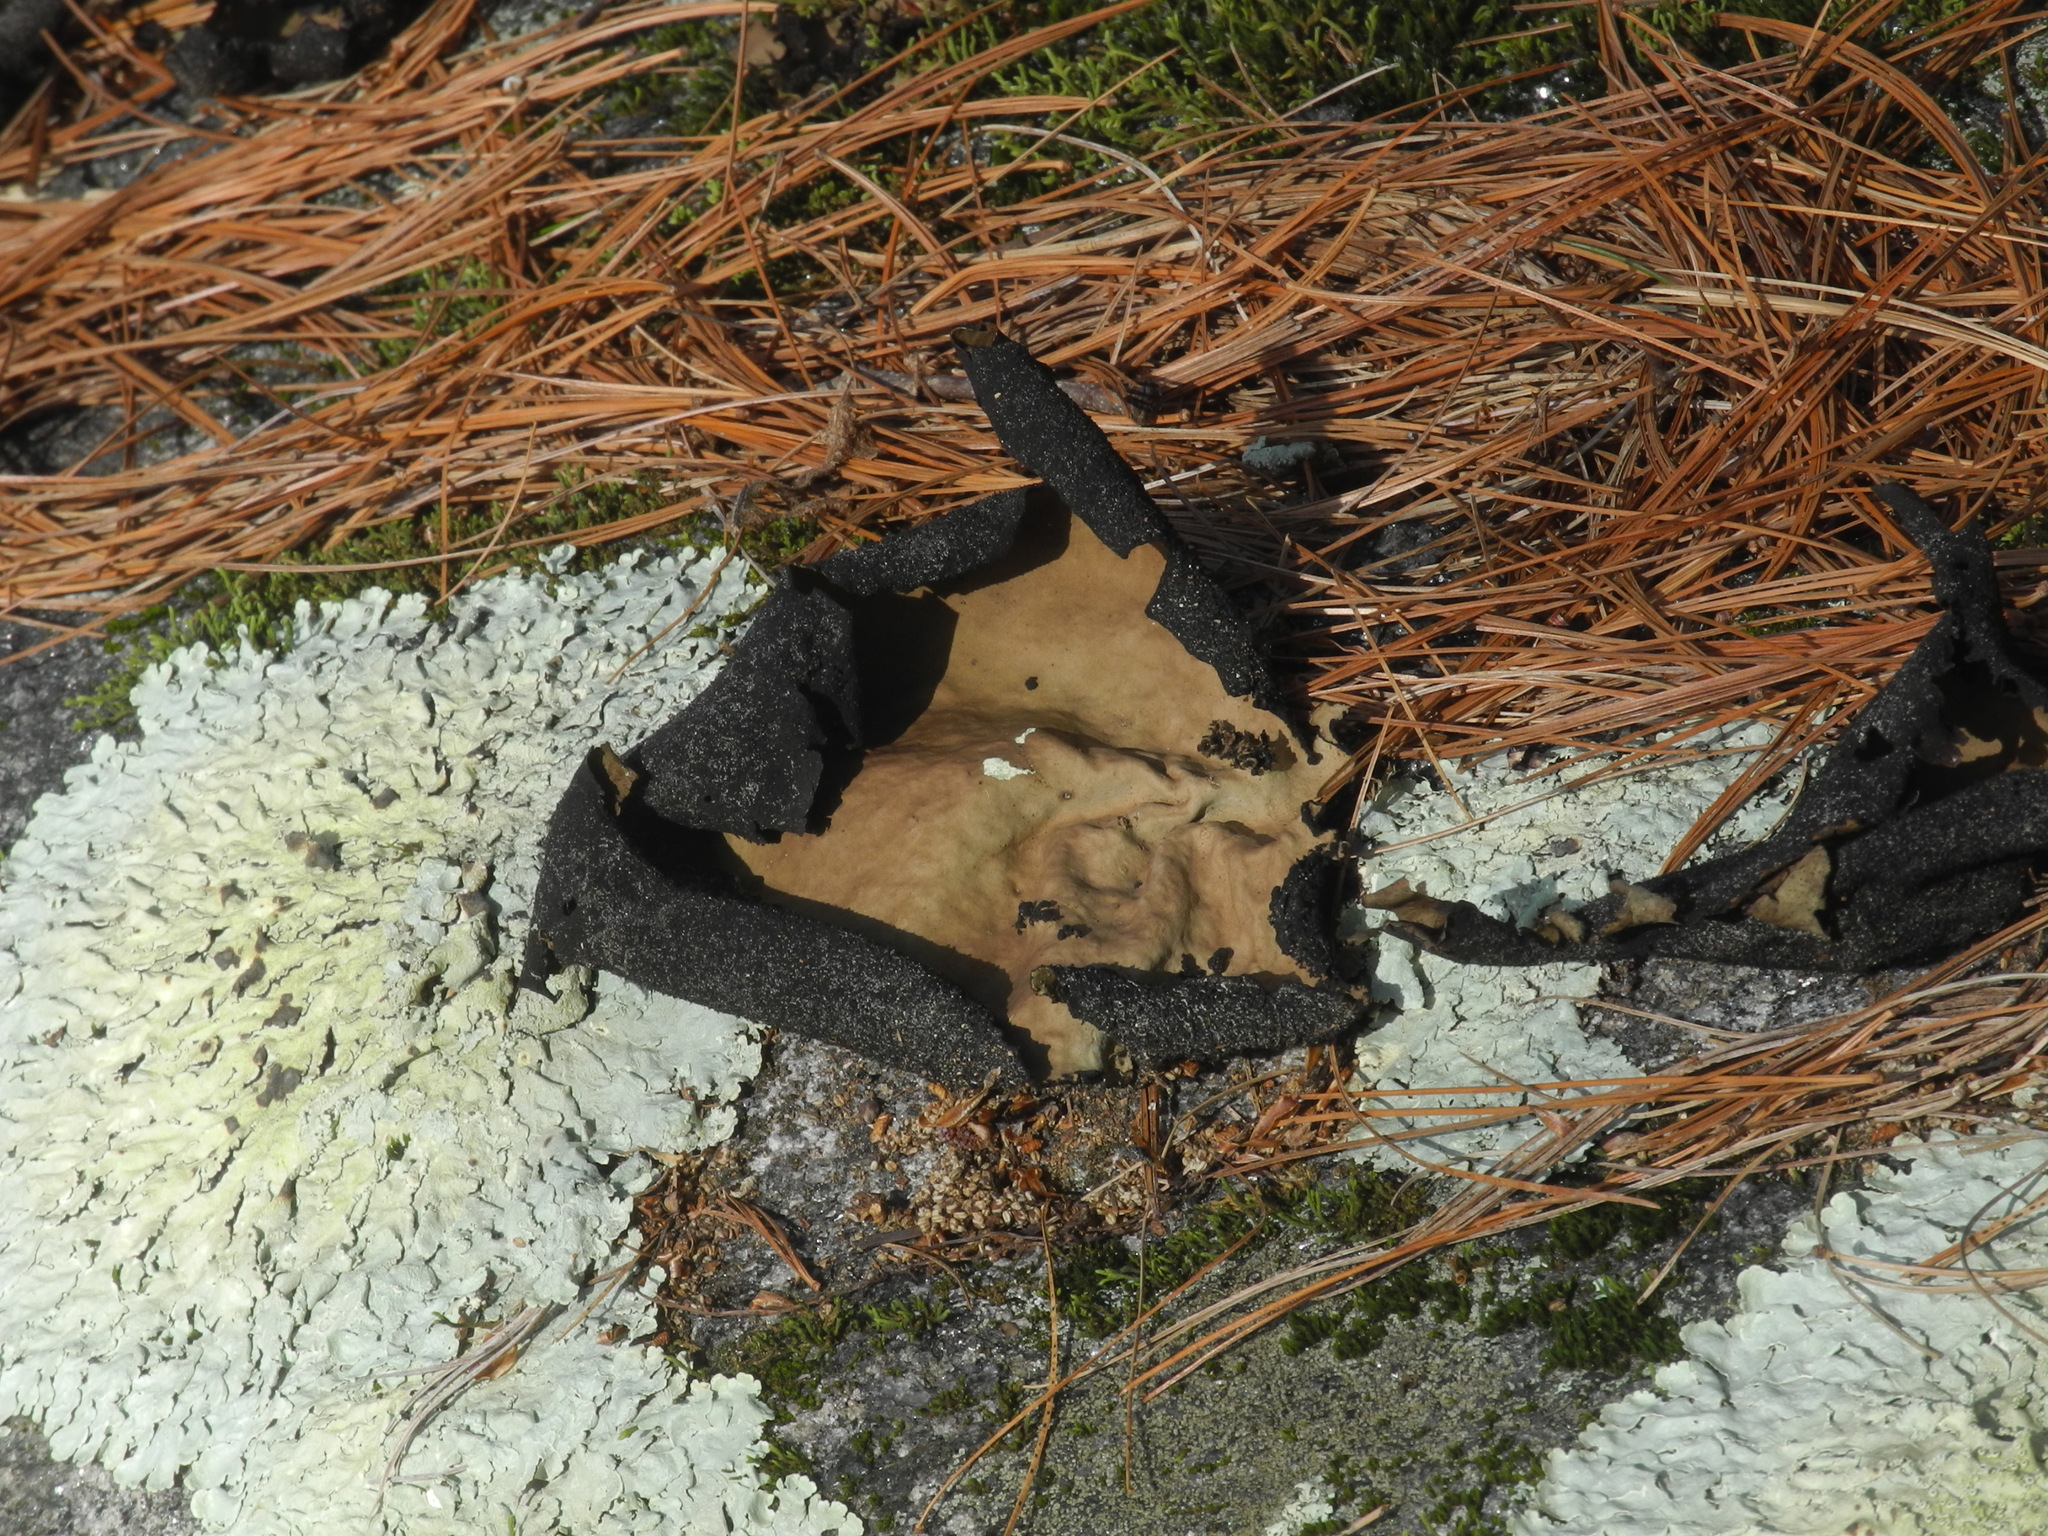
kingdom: Fungi
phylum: Ascomycota
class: Lecanoromycetes
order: Umbilicariales
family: Umbilicariaceae
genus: Umbilicaria
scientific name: Umbilicaria mammulata
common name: Smooth rock tripe
